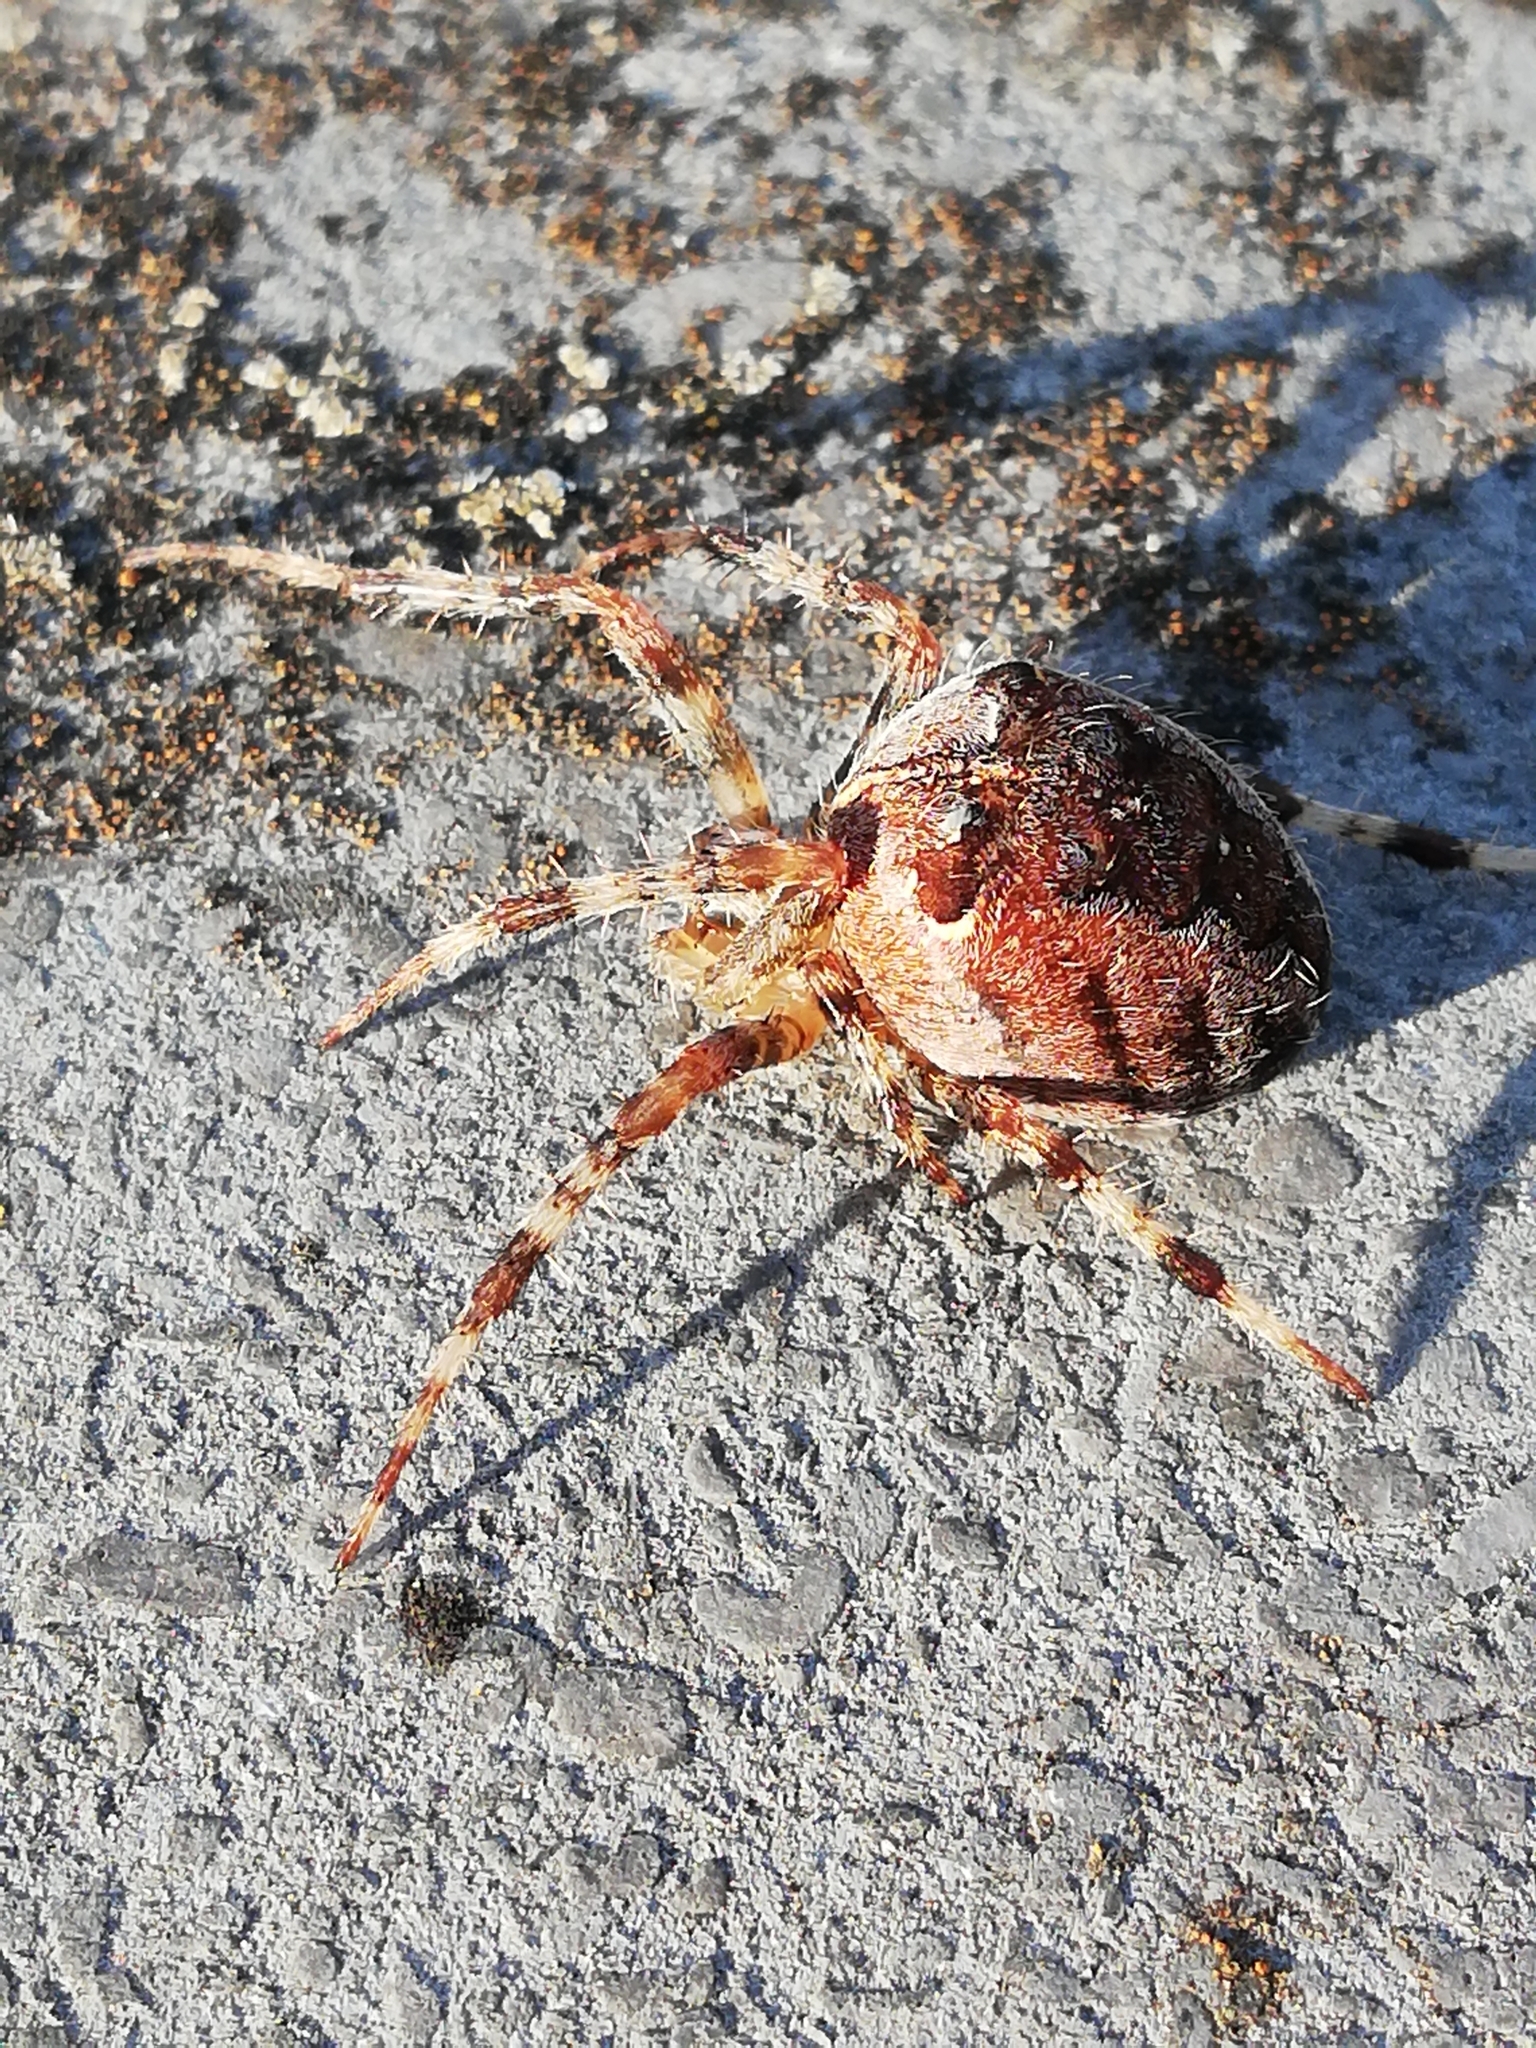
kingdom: Animalia
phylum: Arthropoda
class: Arachnida
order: Araneae
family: Araneidae
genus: Araneus
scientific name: Araneus diadematus
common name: Cross orbweaver
